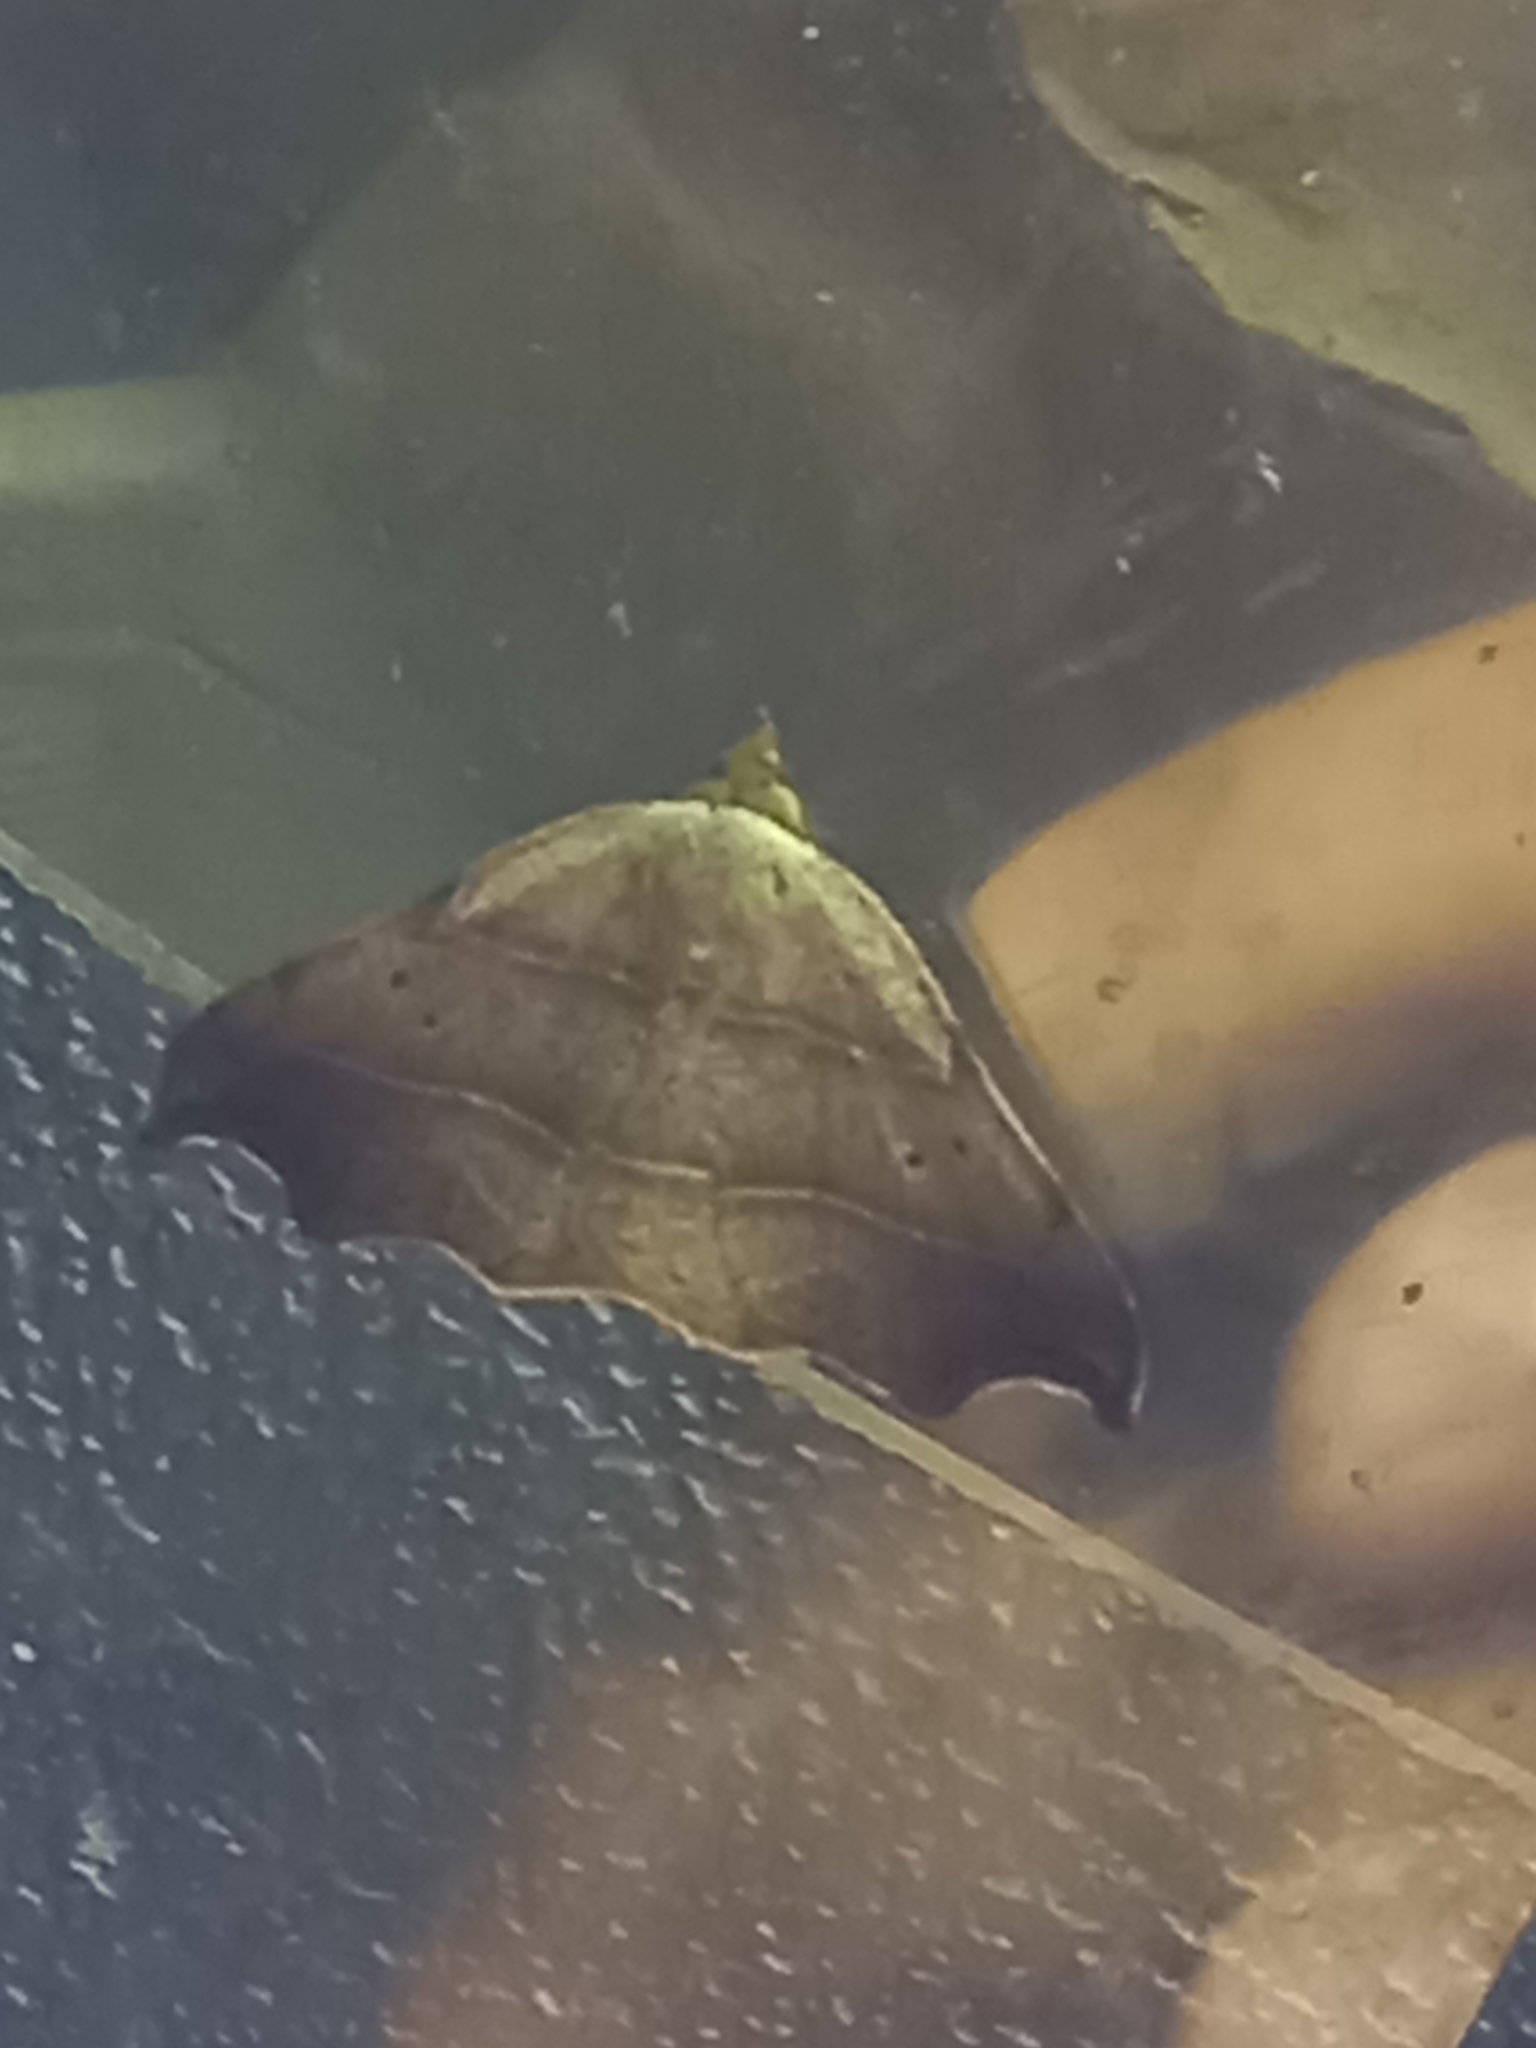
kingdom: Animalia
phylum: Arthropoda
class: Insecta
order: Lepidoptera
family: Erebidae
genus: Laspeyria
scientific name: Laspeyria flexula
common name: Beautiful hook-tip
